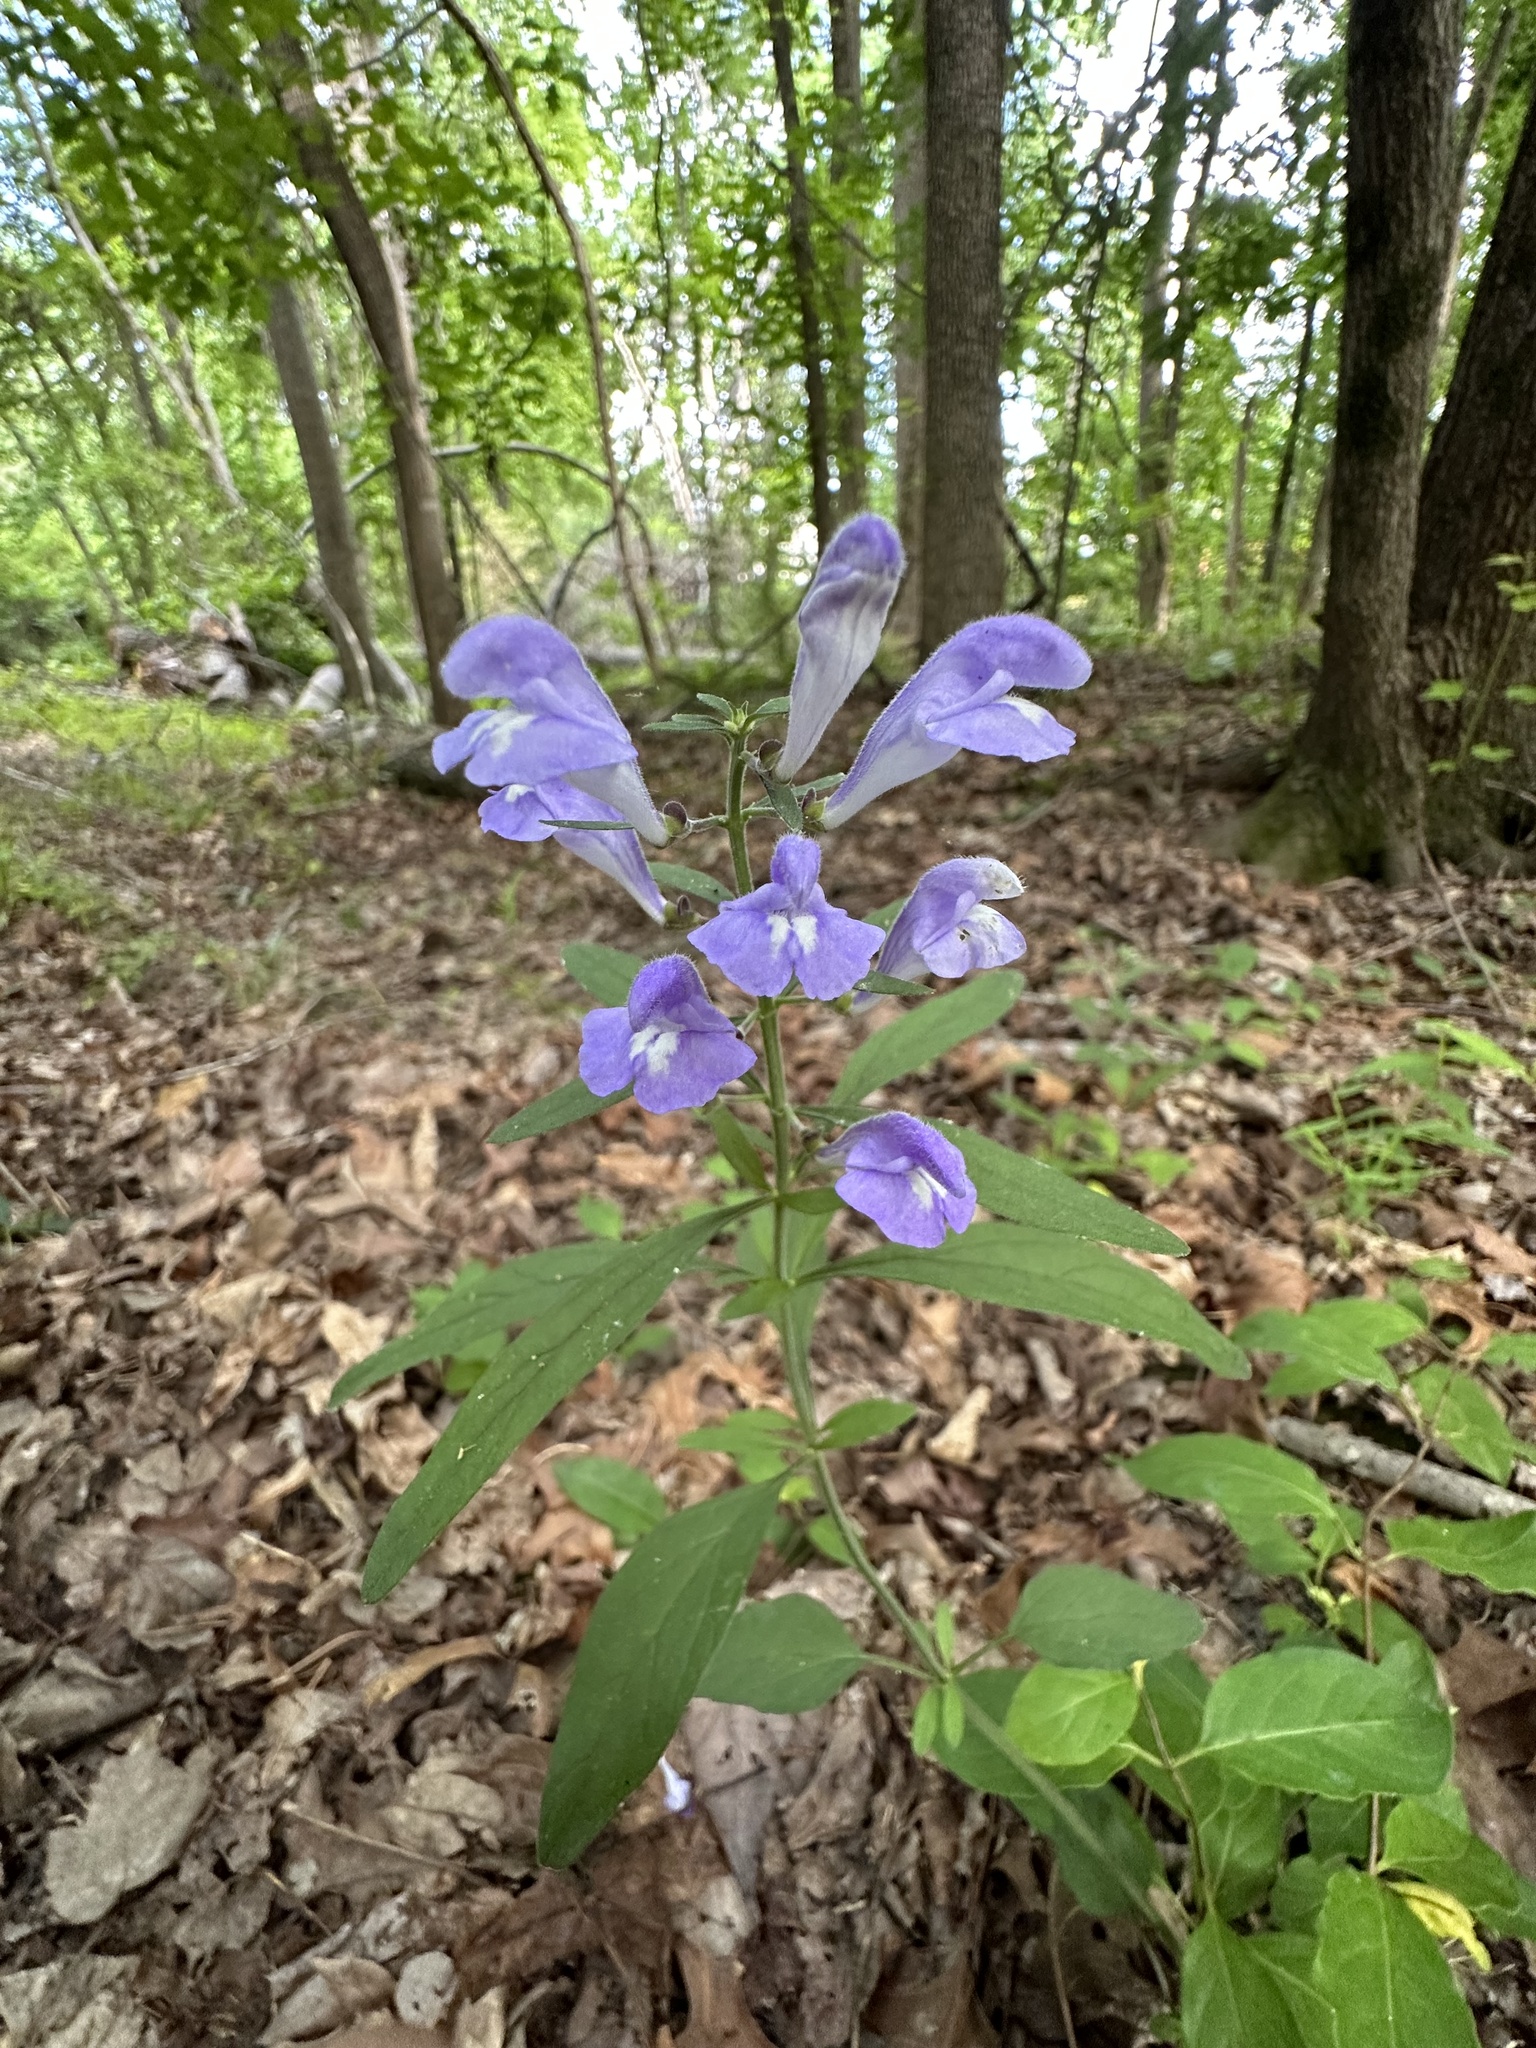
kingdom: Plantae
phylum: Tracheophyta
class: Magnoliopsida
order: Lamiales
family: Lamiaceae
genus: Scutellaria
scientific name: Scutellaria integrifolia
